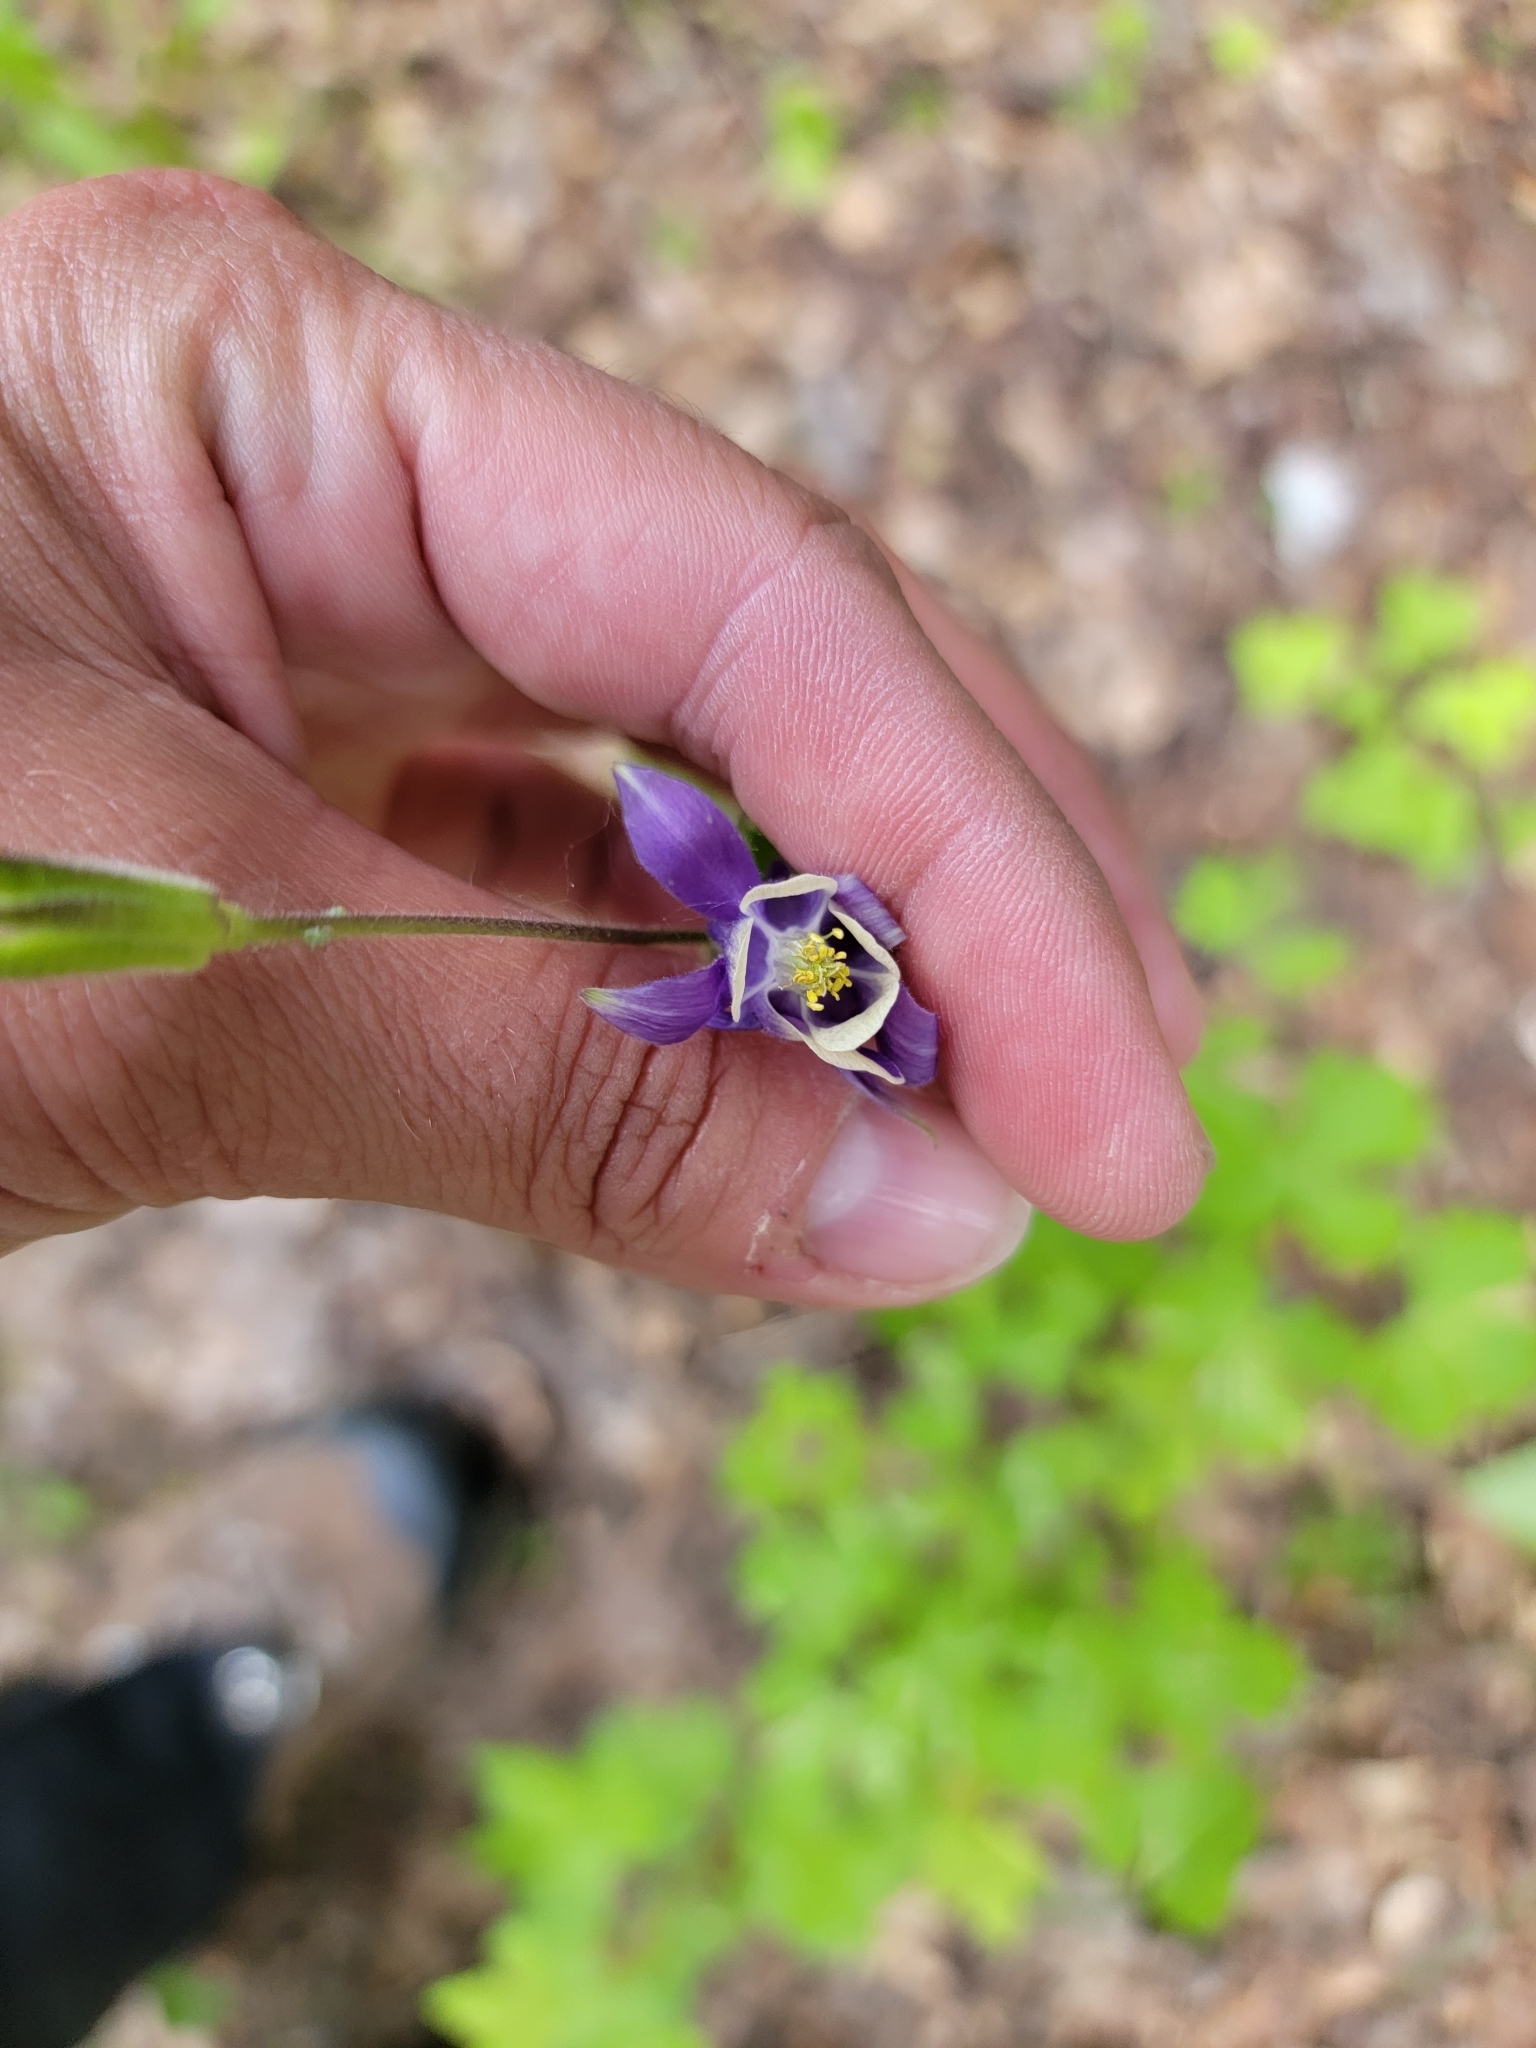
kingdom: Plantae
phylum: Tracheophyta
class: Magnoliopsida
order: Ranunculales
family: Ranunculaceae
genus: Aquilegia
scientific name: Aquilegia brevistyla
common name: Yukon columbine
